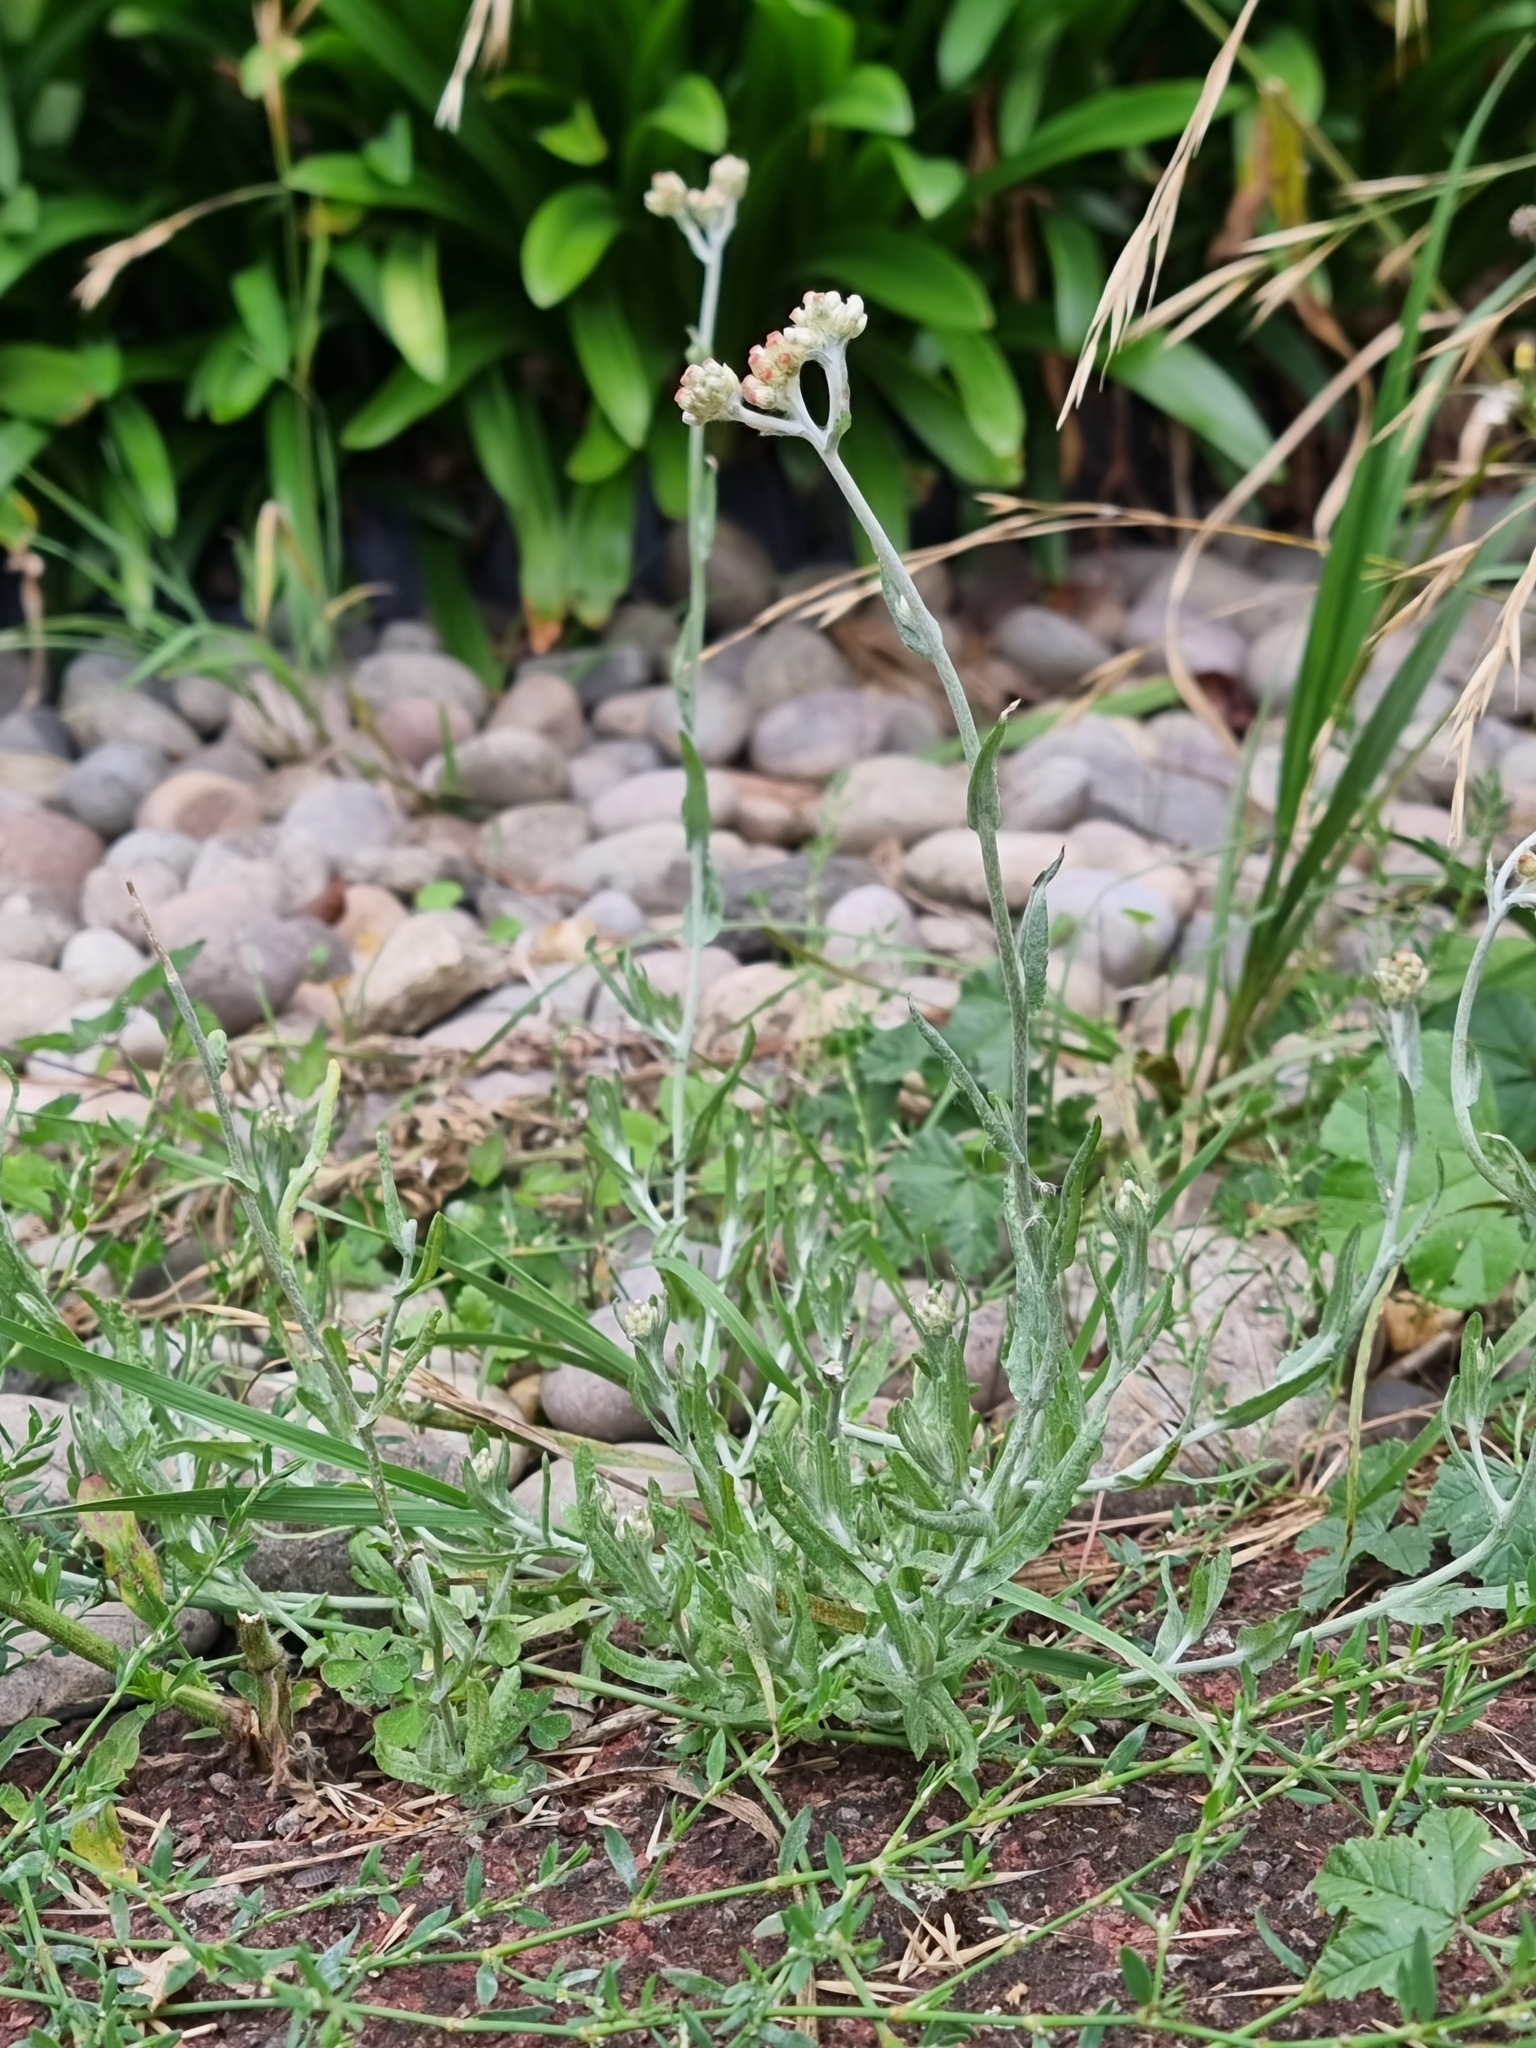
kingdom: Plantae
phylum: Tracheophyta
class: Magnoliopsida
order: Asterales
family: Asteraceae
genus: Helichrysum
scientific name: Helichrysum luteoalbum
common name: Daisy
